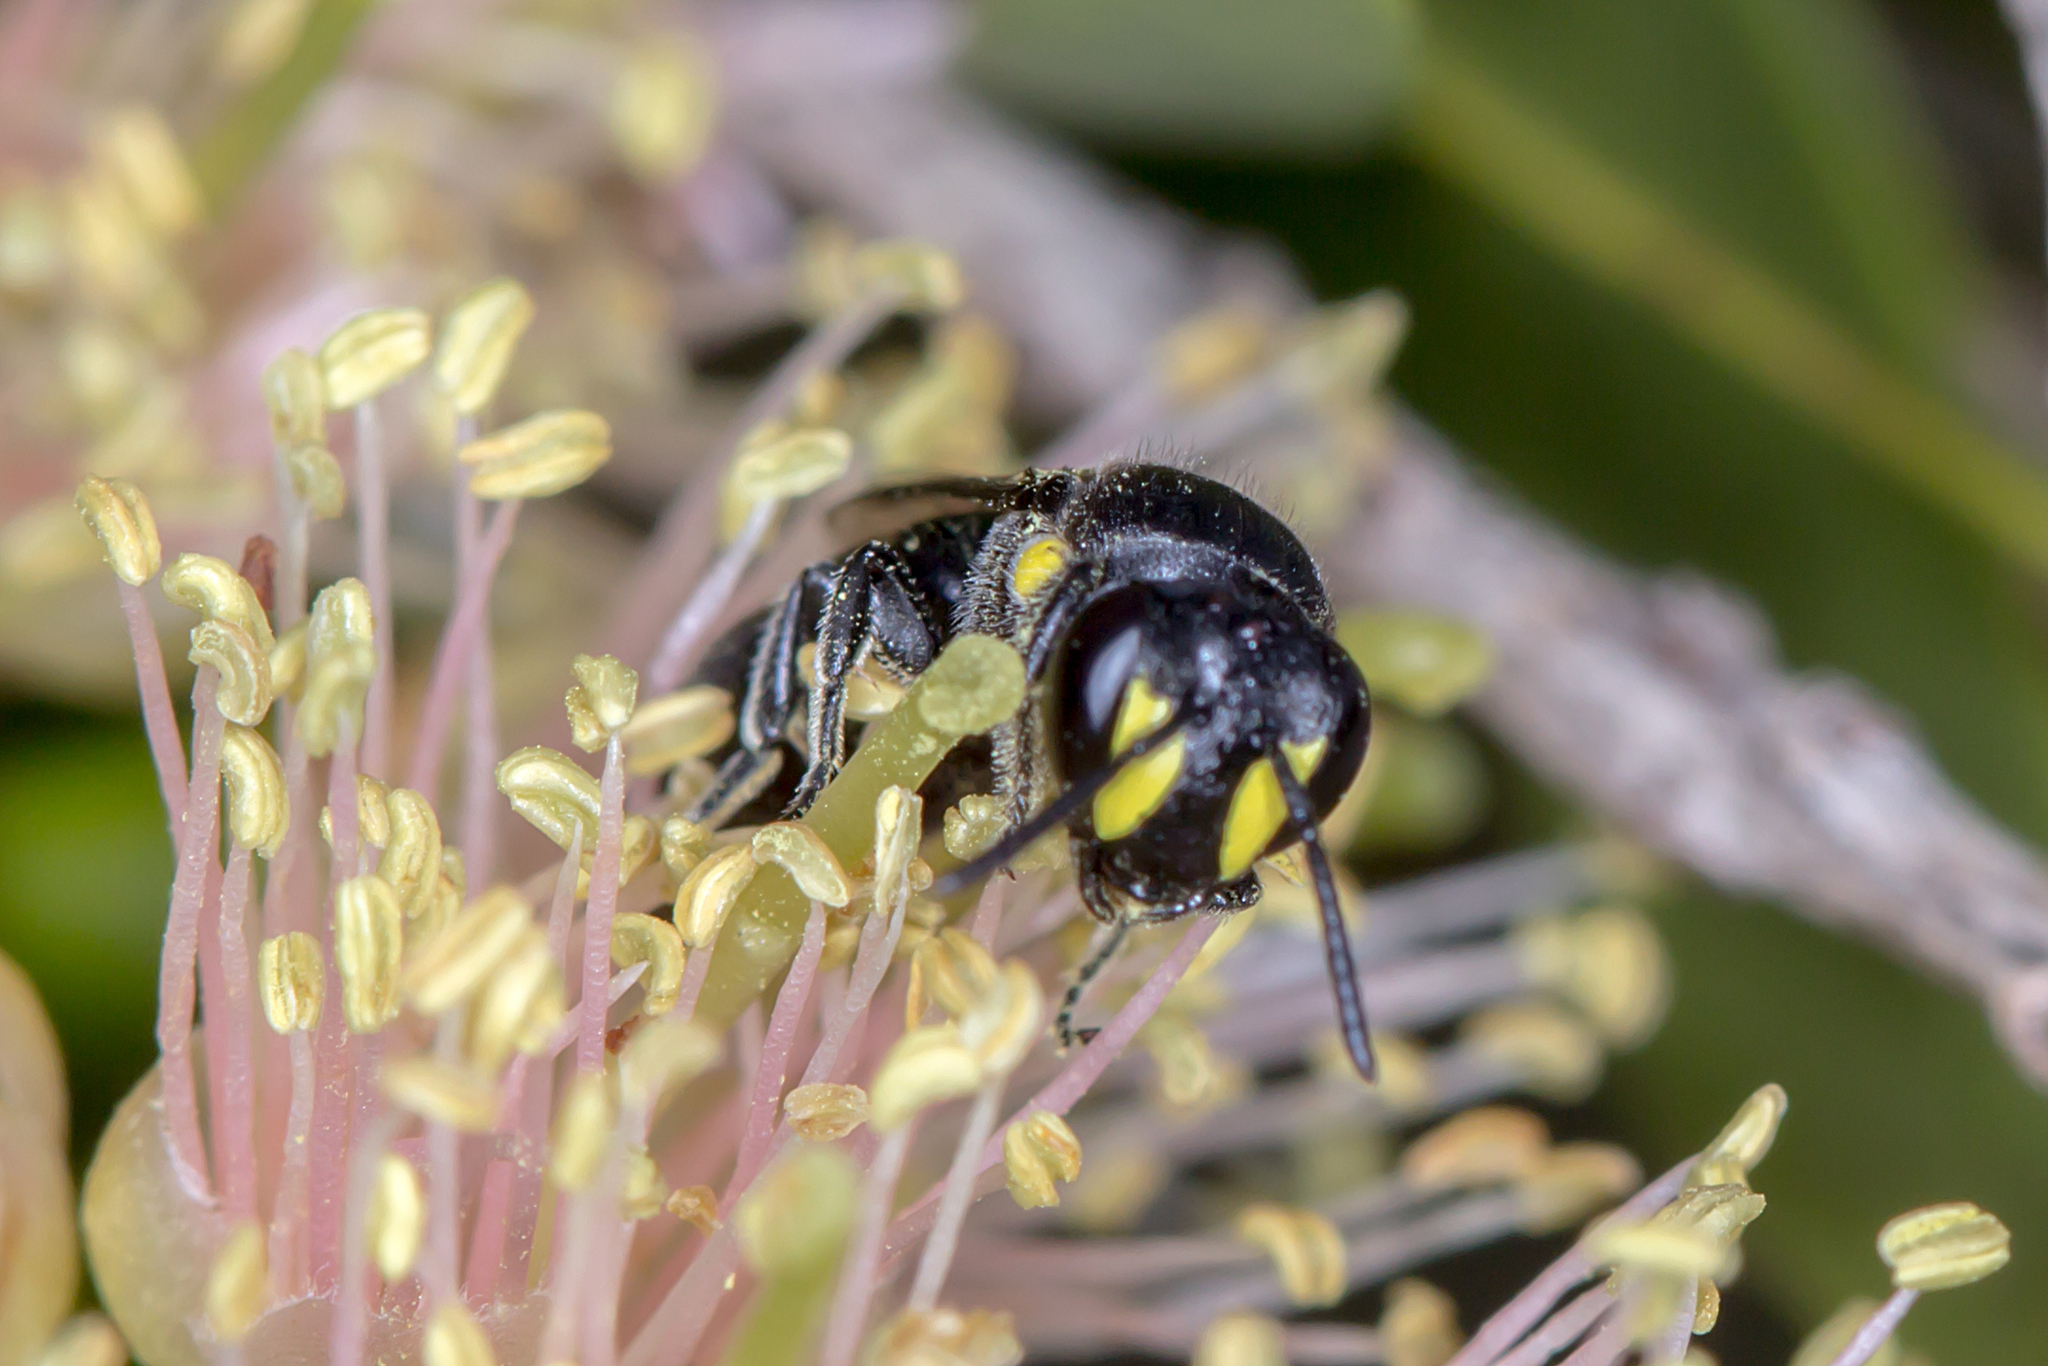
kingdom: Animalia
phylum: Arthropoda
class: Insecta
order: Hymenoptera
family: Colletidae
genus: Hylaeus
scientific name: Hylaeus honestus
